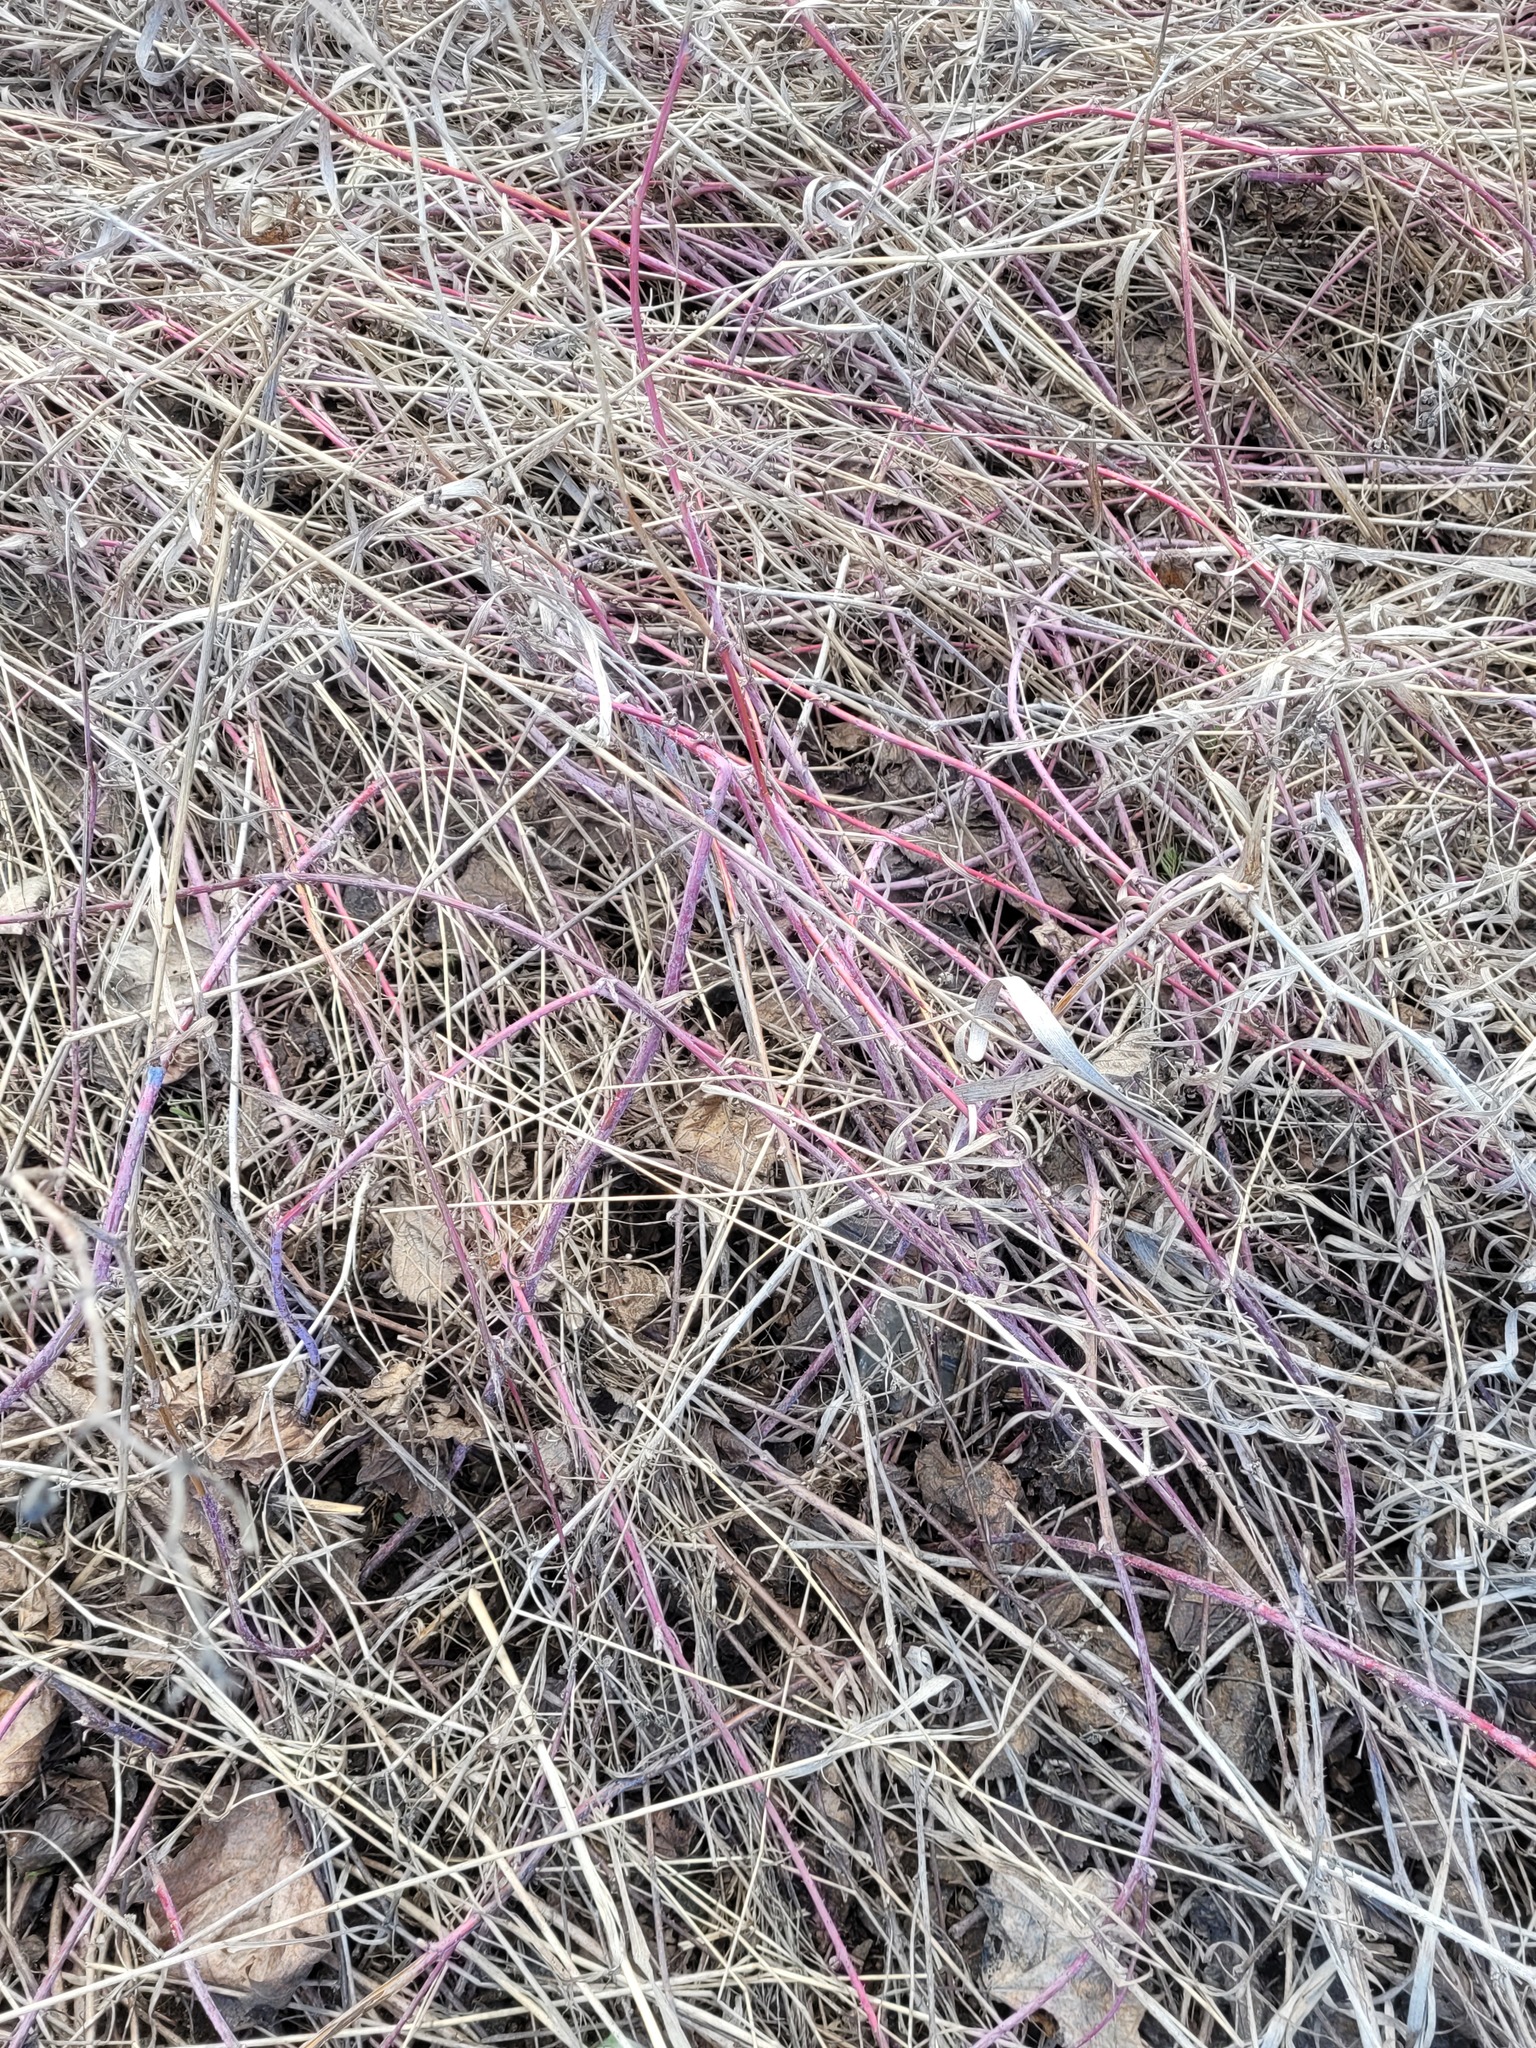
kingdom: Plantae
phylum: Tracheophyta
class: Magnoliopsida
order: Rosales
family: Rosaceae
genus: Rubus
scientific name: Rubus caesius
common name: Dewberry
